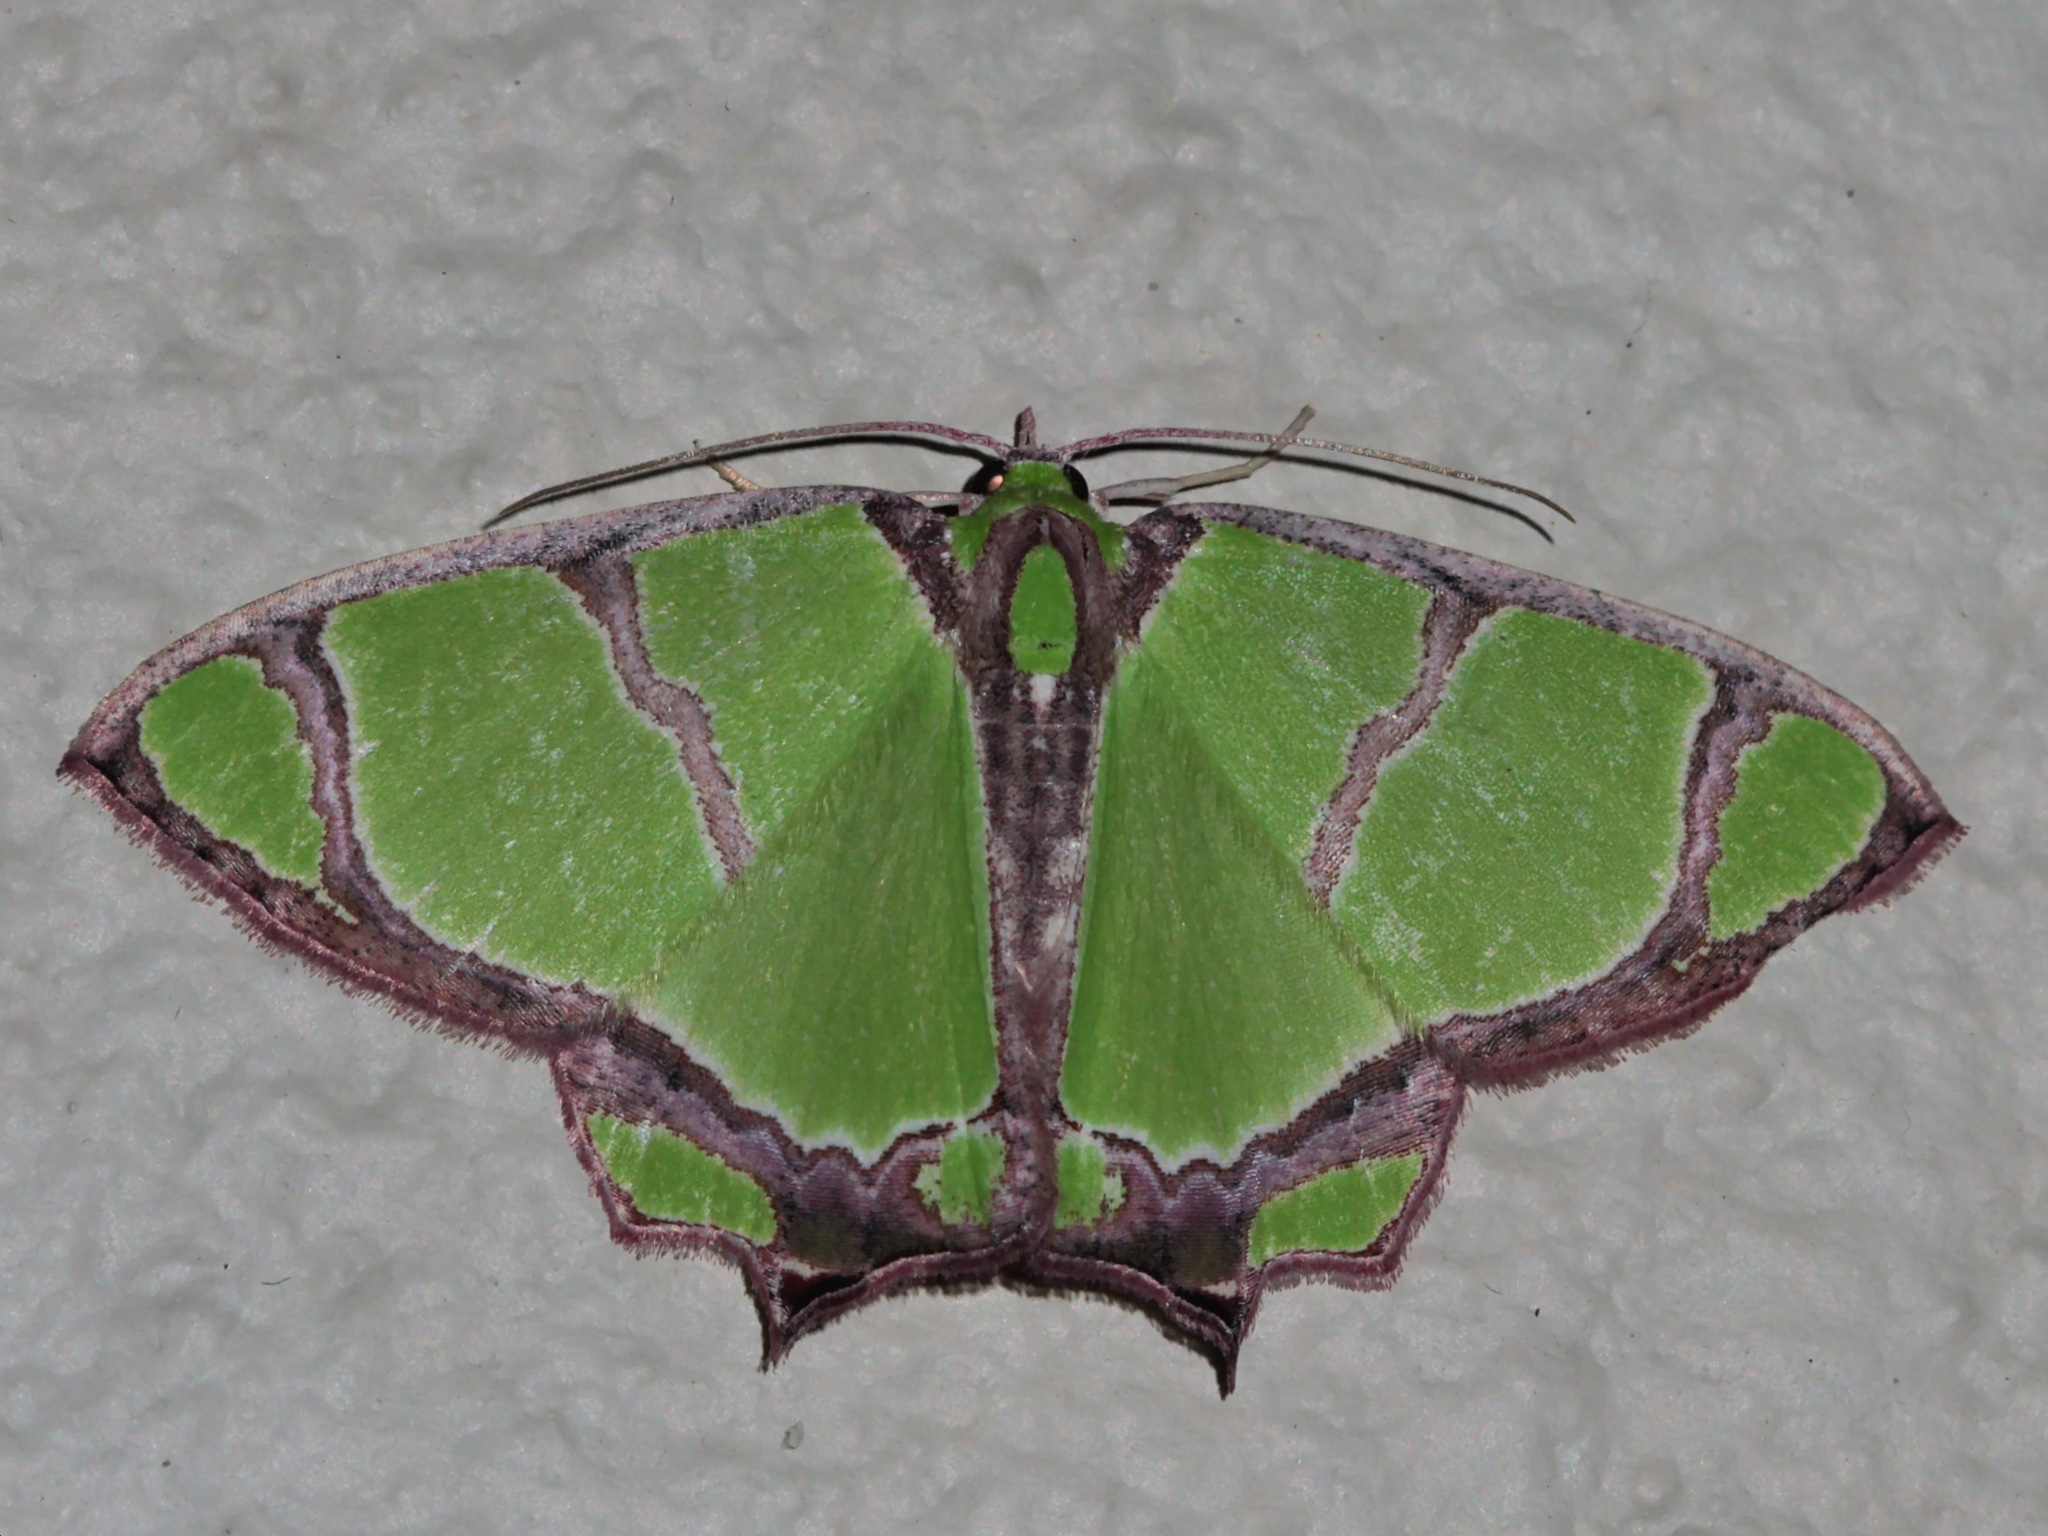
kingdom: Animalia
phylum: Arthropoda
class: Insecta
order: Lepidoptera
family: Geometridae
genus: Agathia
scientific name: Agathia angustilimes
